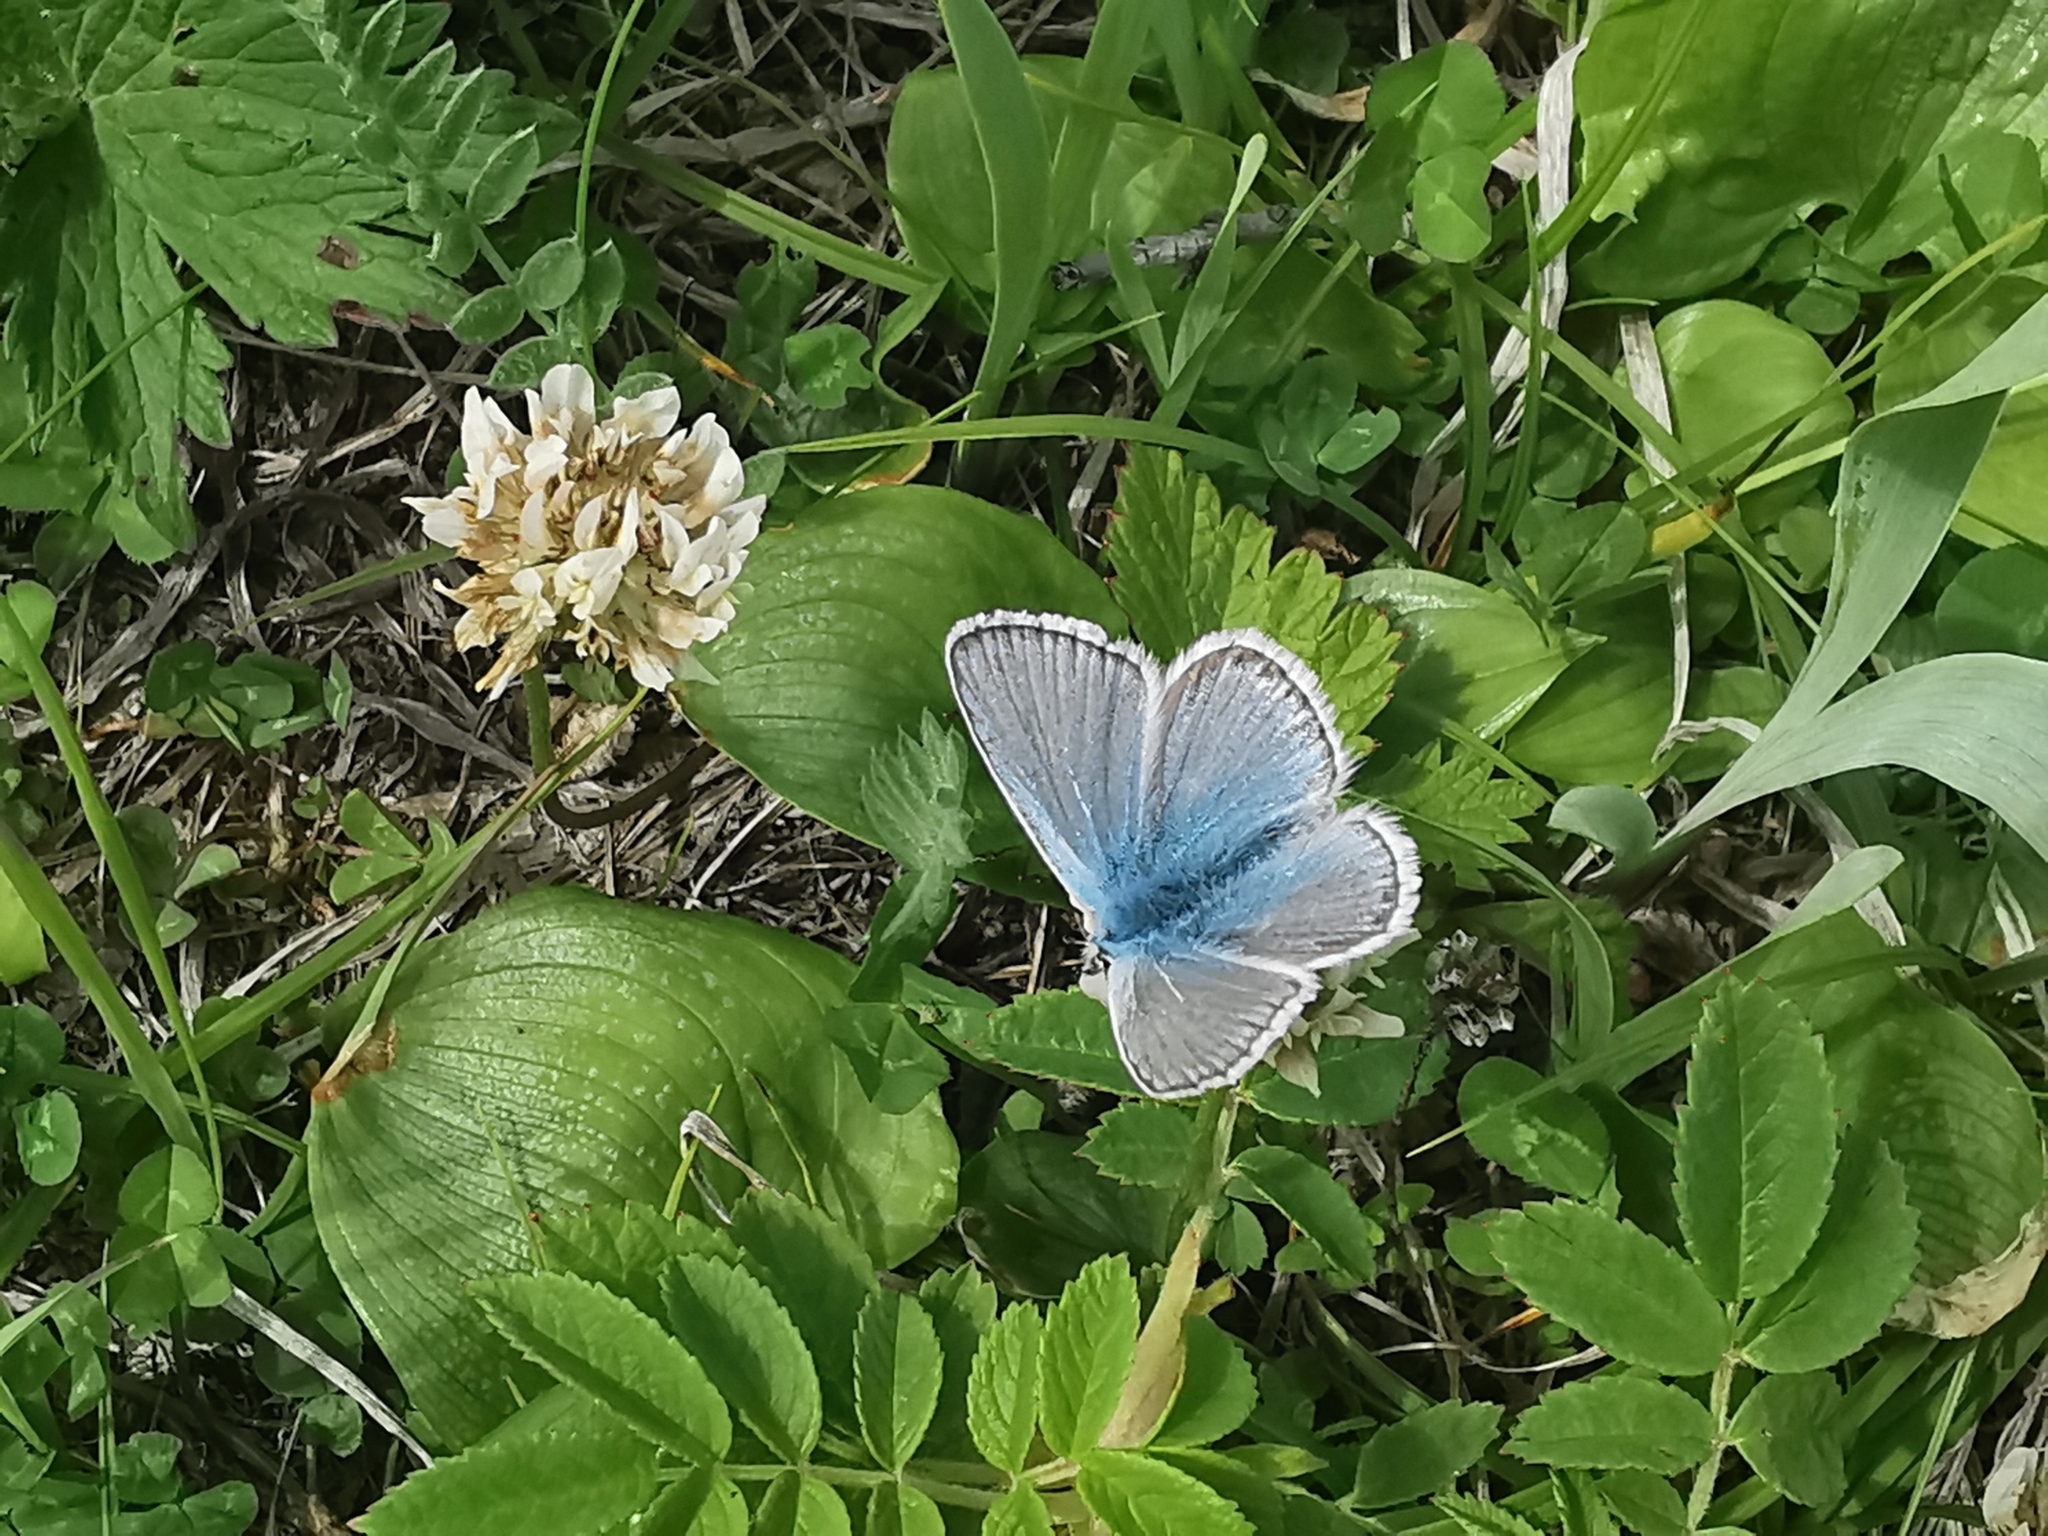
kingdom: Animalia
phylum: Arthropoda
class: Insecta
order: Lepidoptera
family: Lycaenidae
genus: Polyommatus
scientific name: Polyommatus eros
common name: Eros blue
